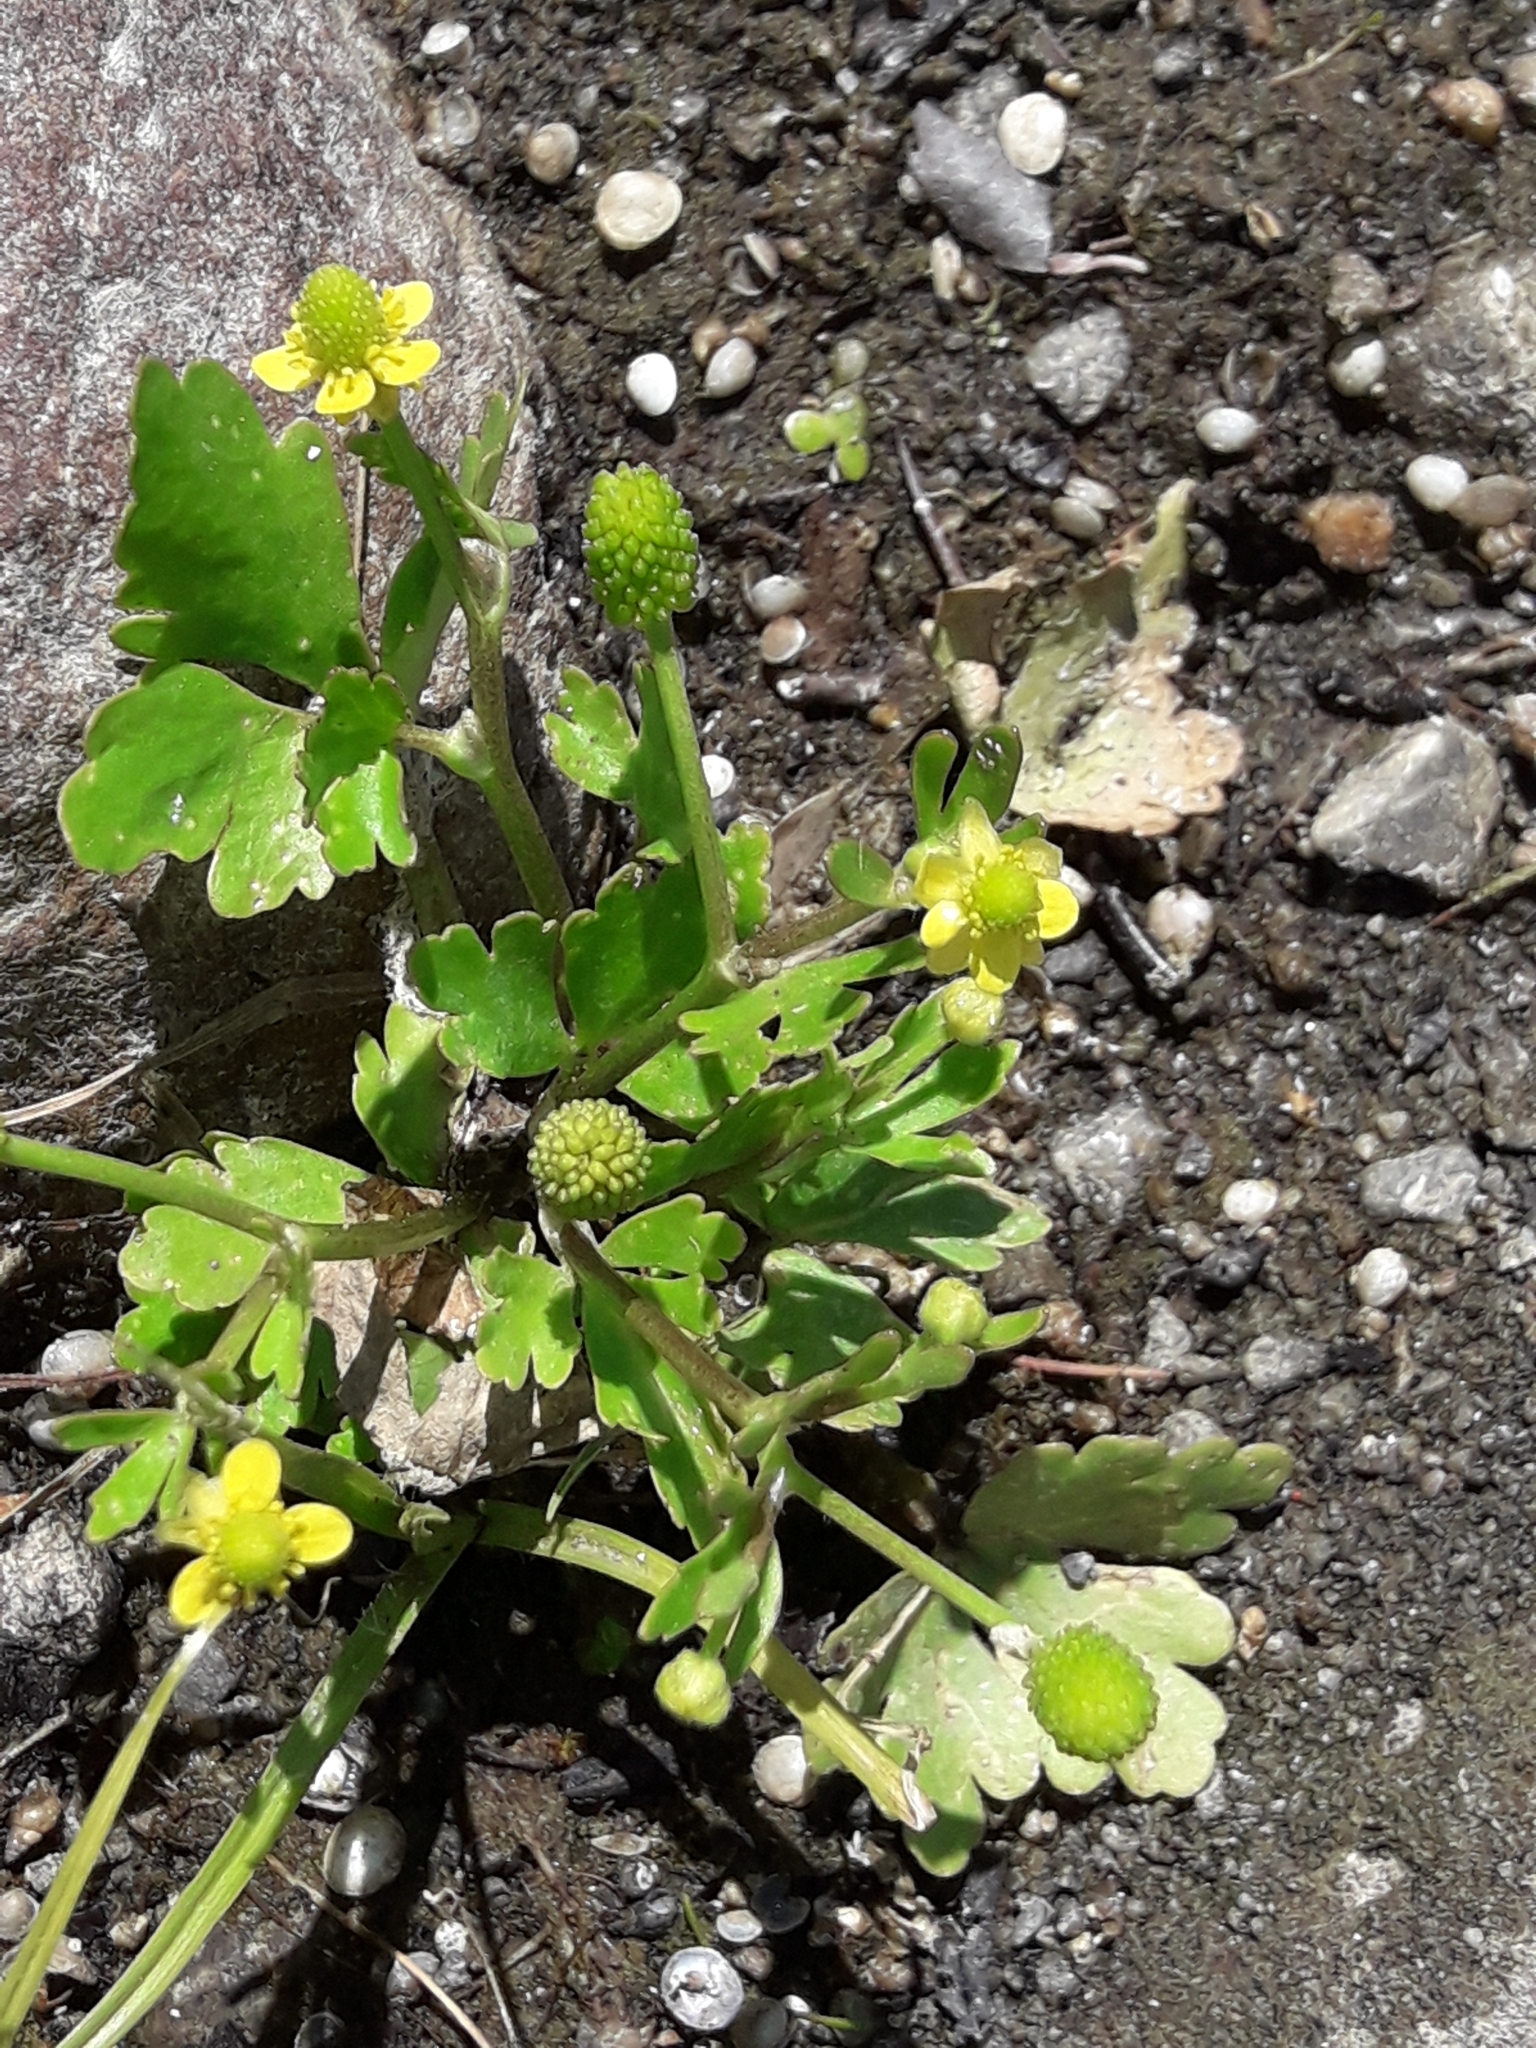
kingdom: Plantae
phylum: Tracheophyta
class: Magnoliopsida
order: Ranunculales
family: Ranunculaceae
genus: Ranunculus
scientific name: Ranunculus sceleratus
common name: Celery-leaved buttercup
